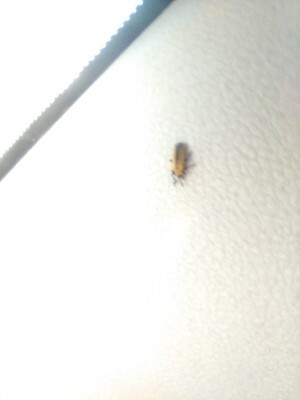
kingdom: Animalia
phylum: Arthropoda
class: Insecta
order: Coleoptera
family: Chrysomelidae
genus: Odontota
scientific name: Odontota dorsalis
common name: Locust leaf-miner beetle
